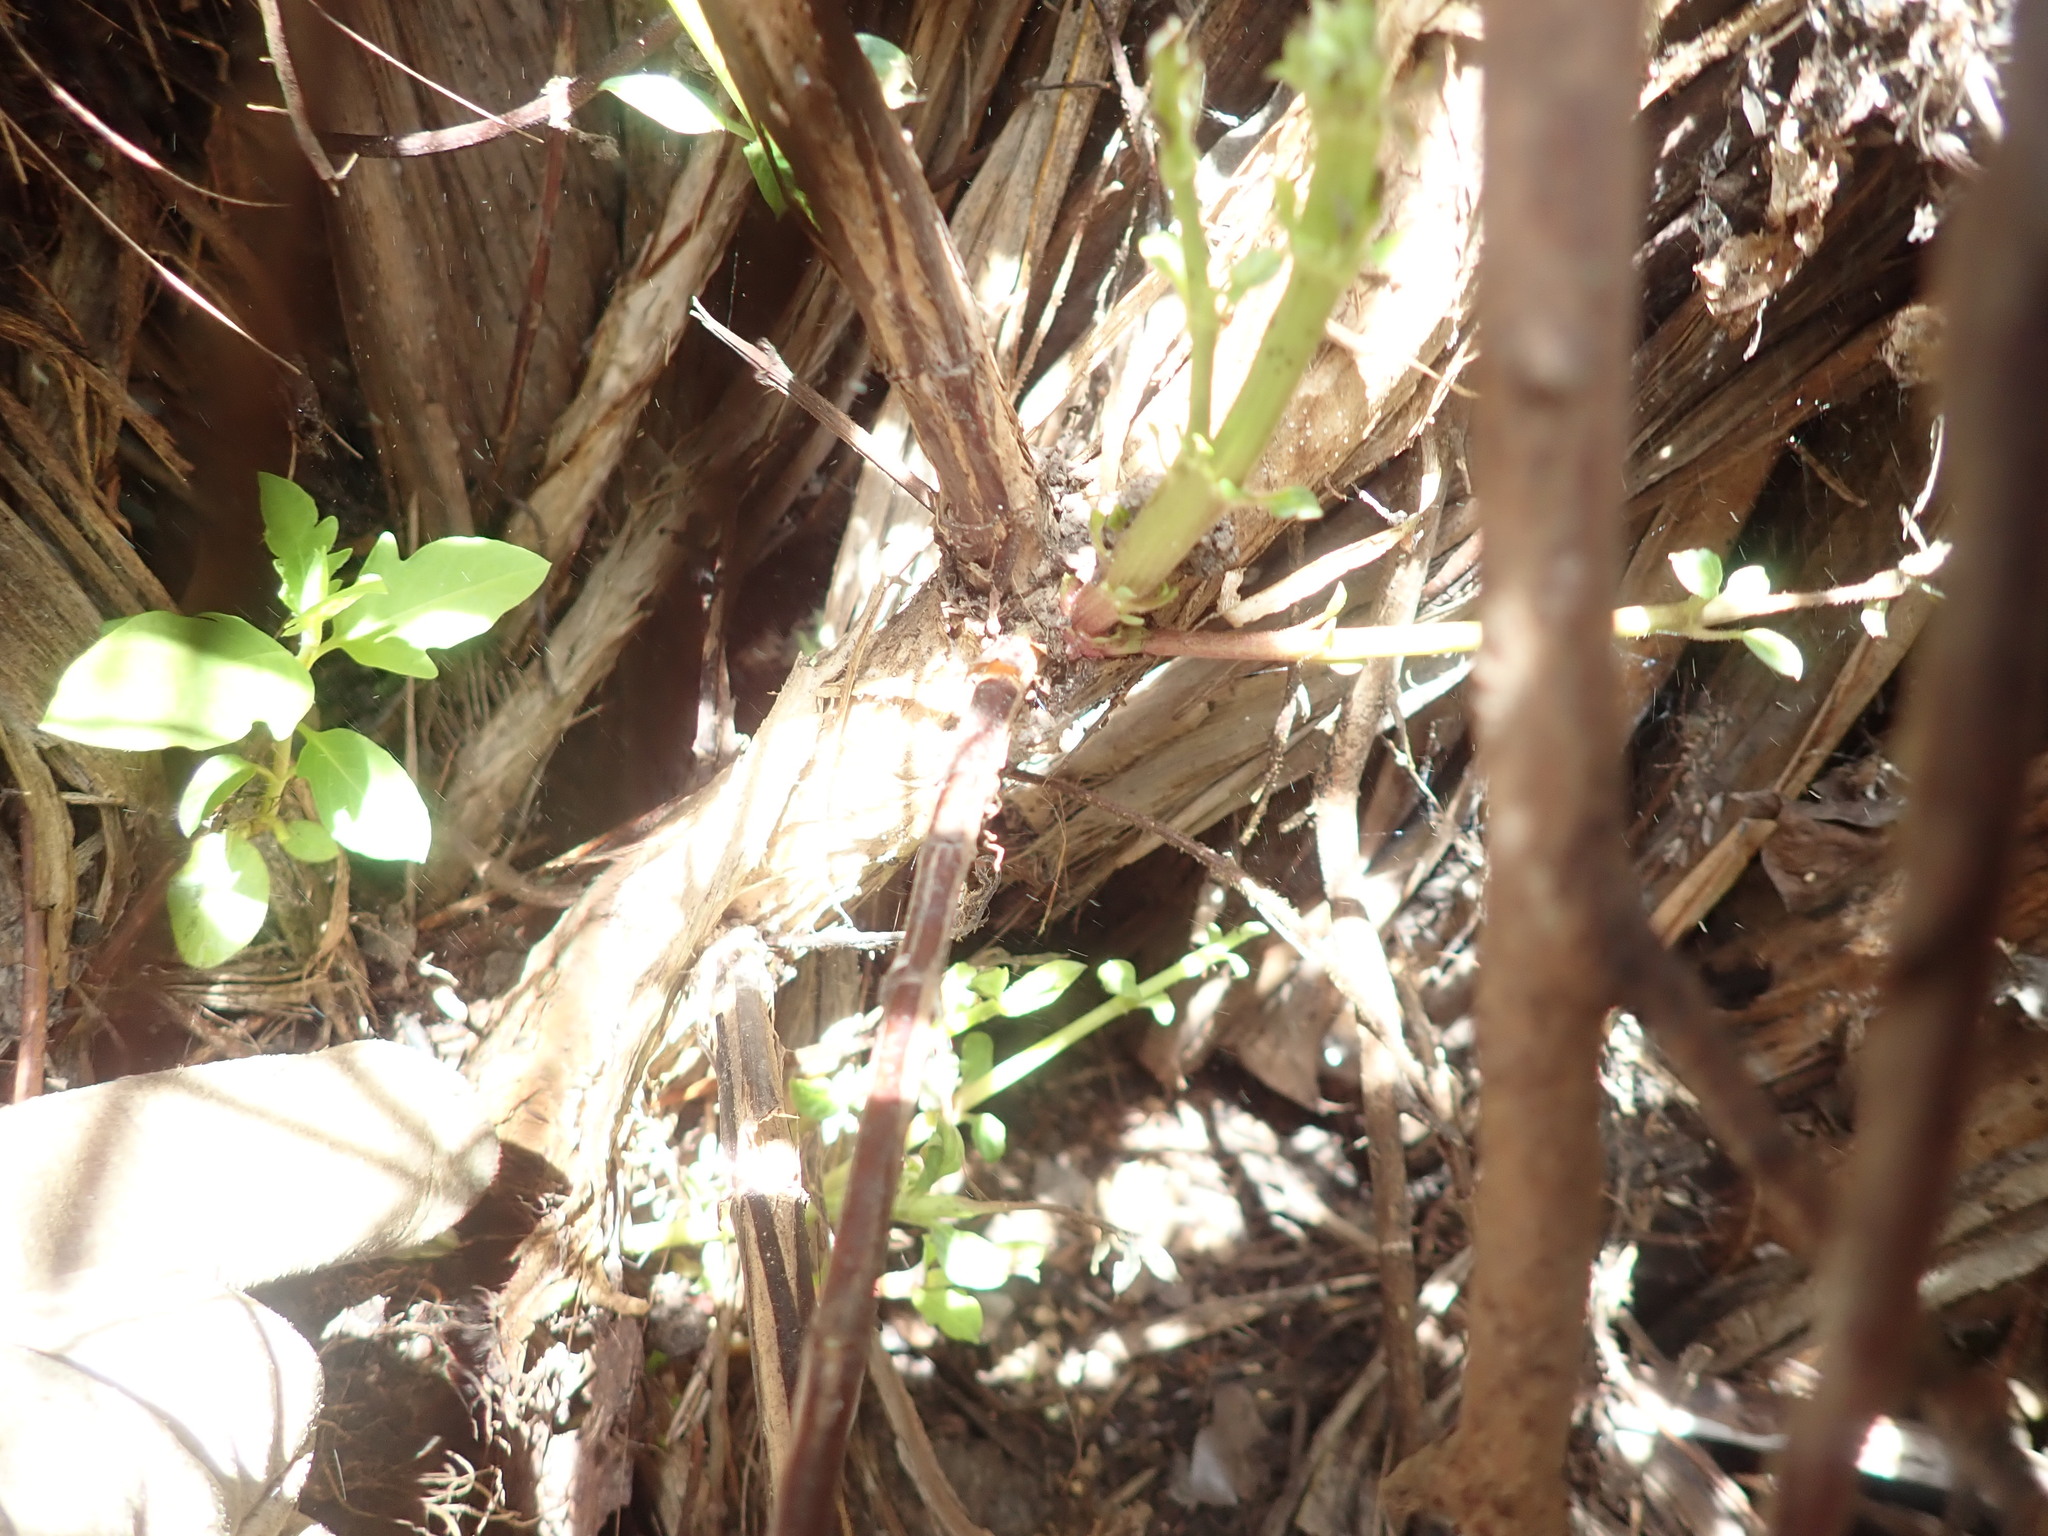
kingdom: Plantae
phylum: Tracheophyta
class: Magnoliopsida
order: Dipsacales
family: Caprifoliaceae
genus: Lonicera
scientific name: Lonicera japonica
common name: Japanese honeysuckle
